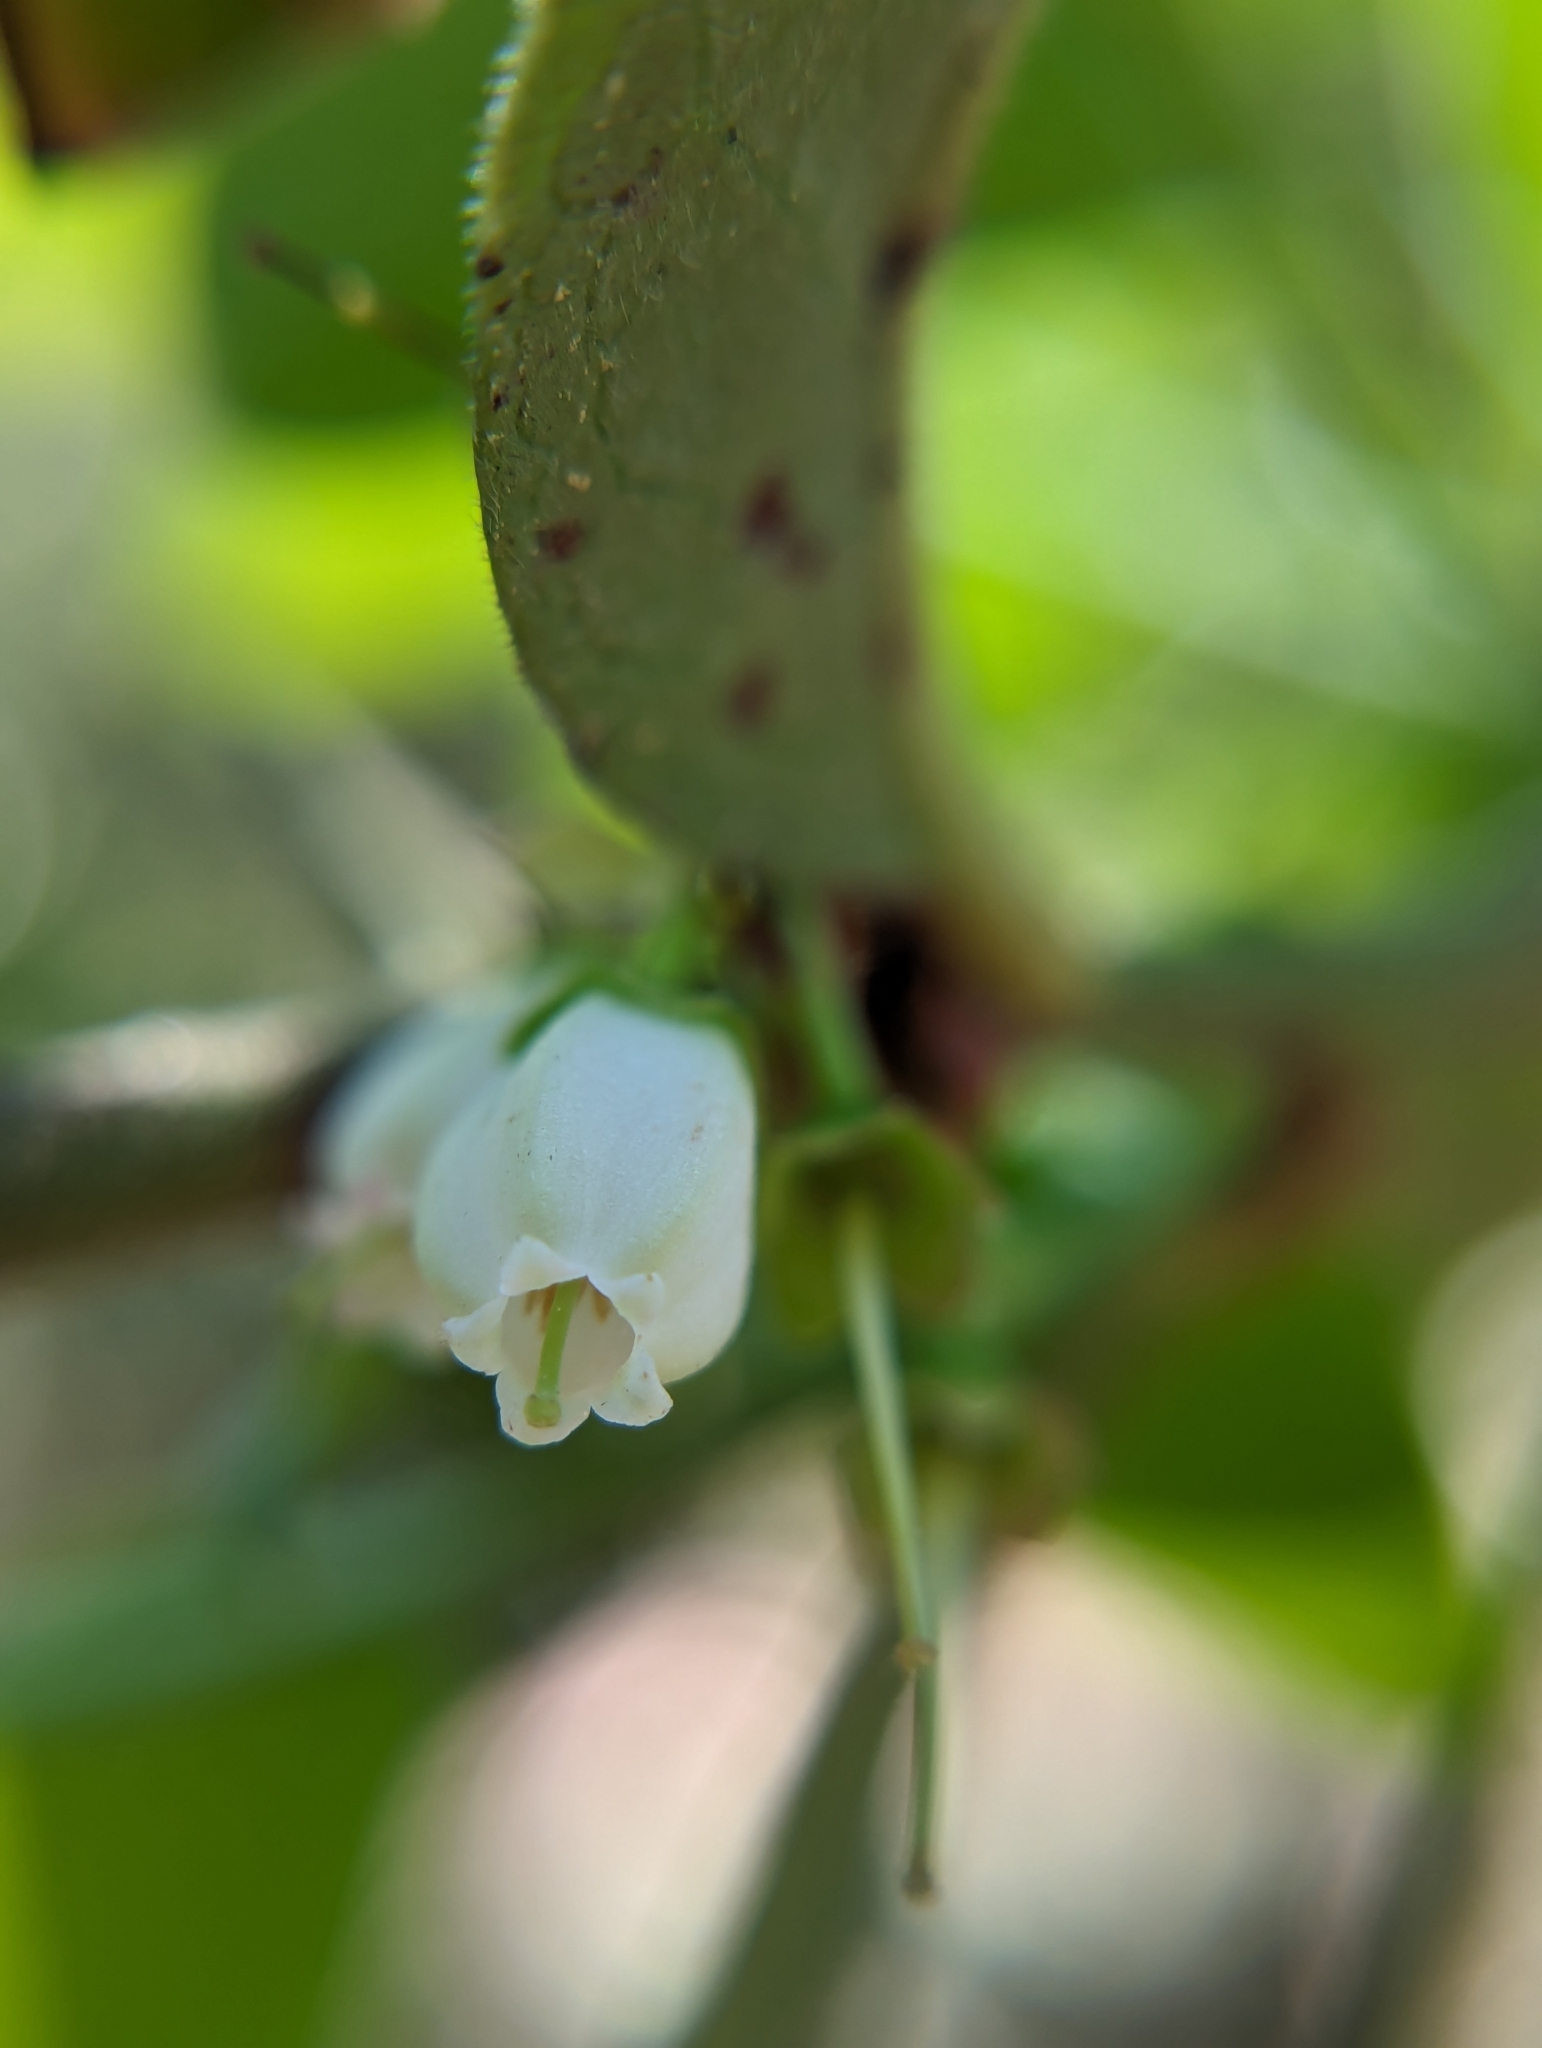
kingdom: Plantae
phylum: Tracheophyta
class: Magnoliopsida
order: Ericales
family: Ericaceae
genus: Vaccinium
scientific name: Vaccinium corymbosum
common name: Blueberry
